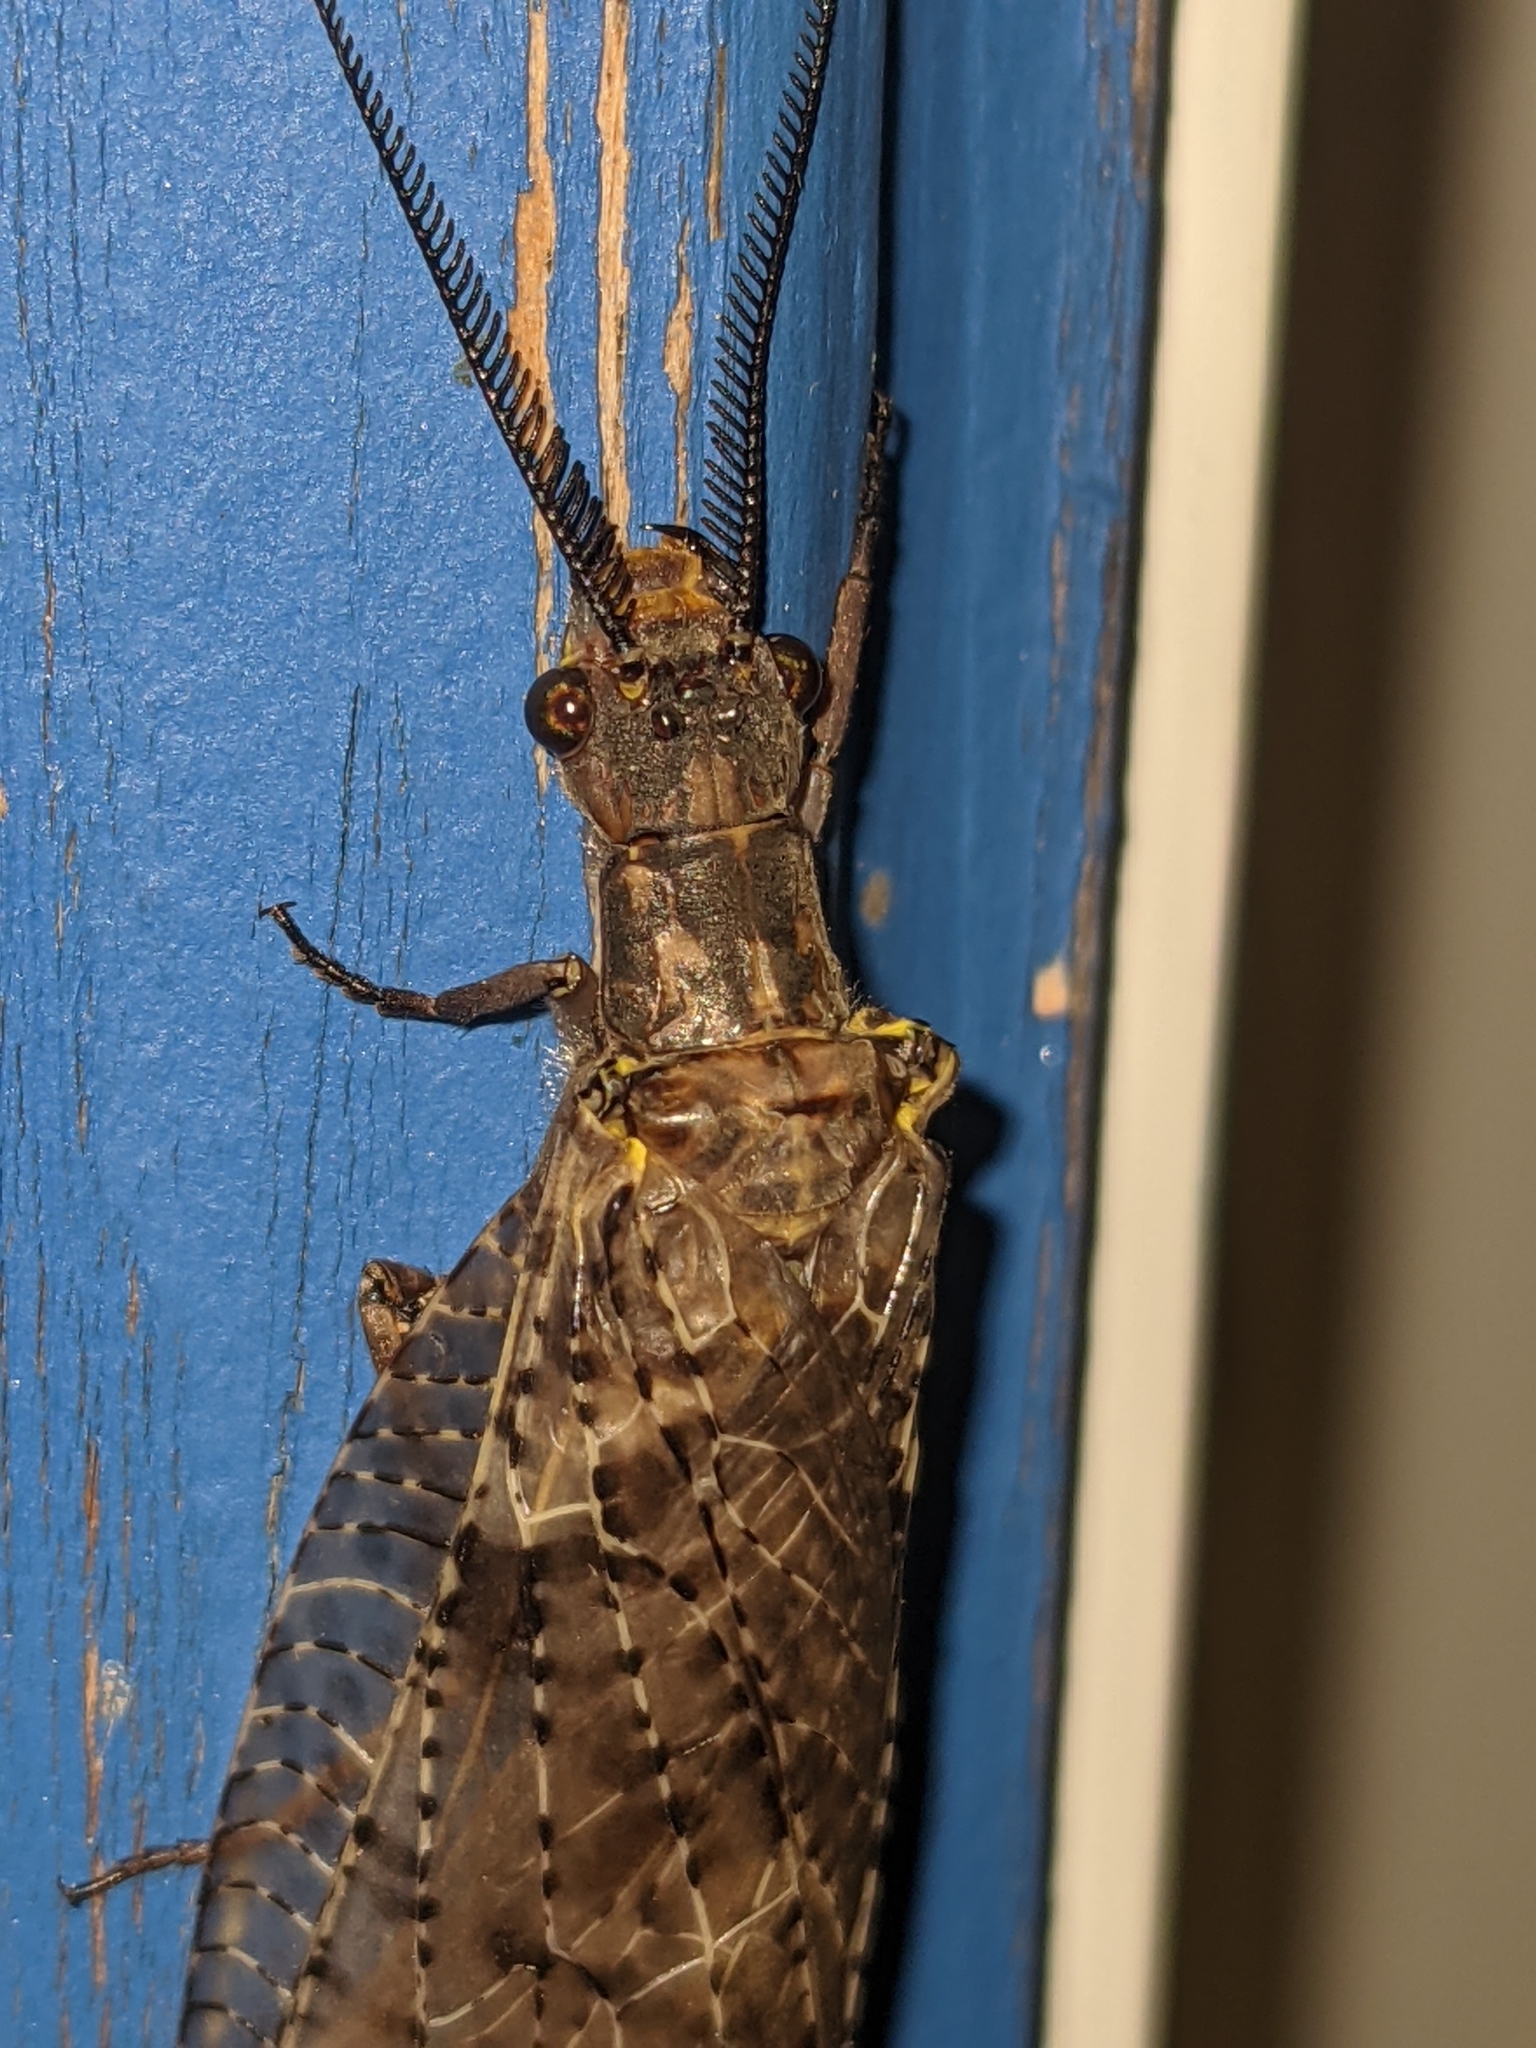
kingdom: Animalia
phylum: Arthropoda
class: Insecta
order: Megaloptera
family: Corydalidae
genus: Chauliodes
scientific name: Chauliodes pectinicornis
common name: Summer fishfly
